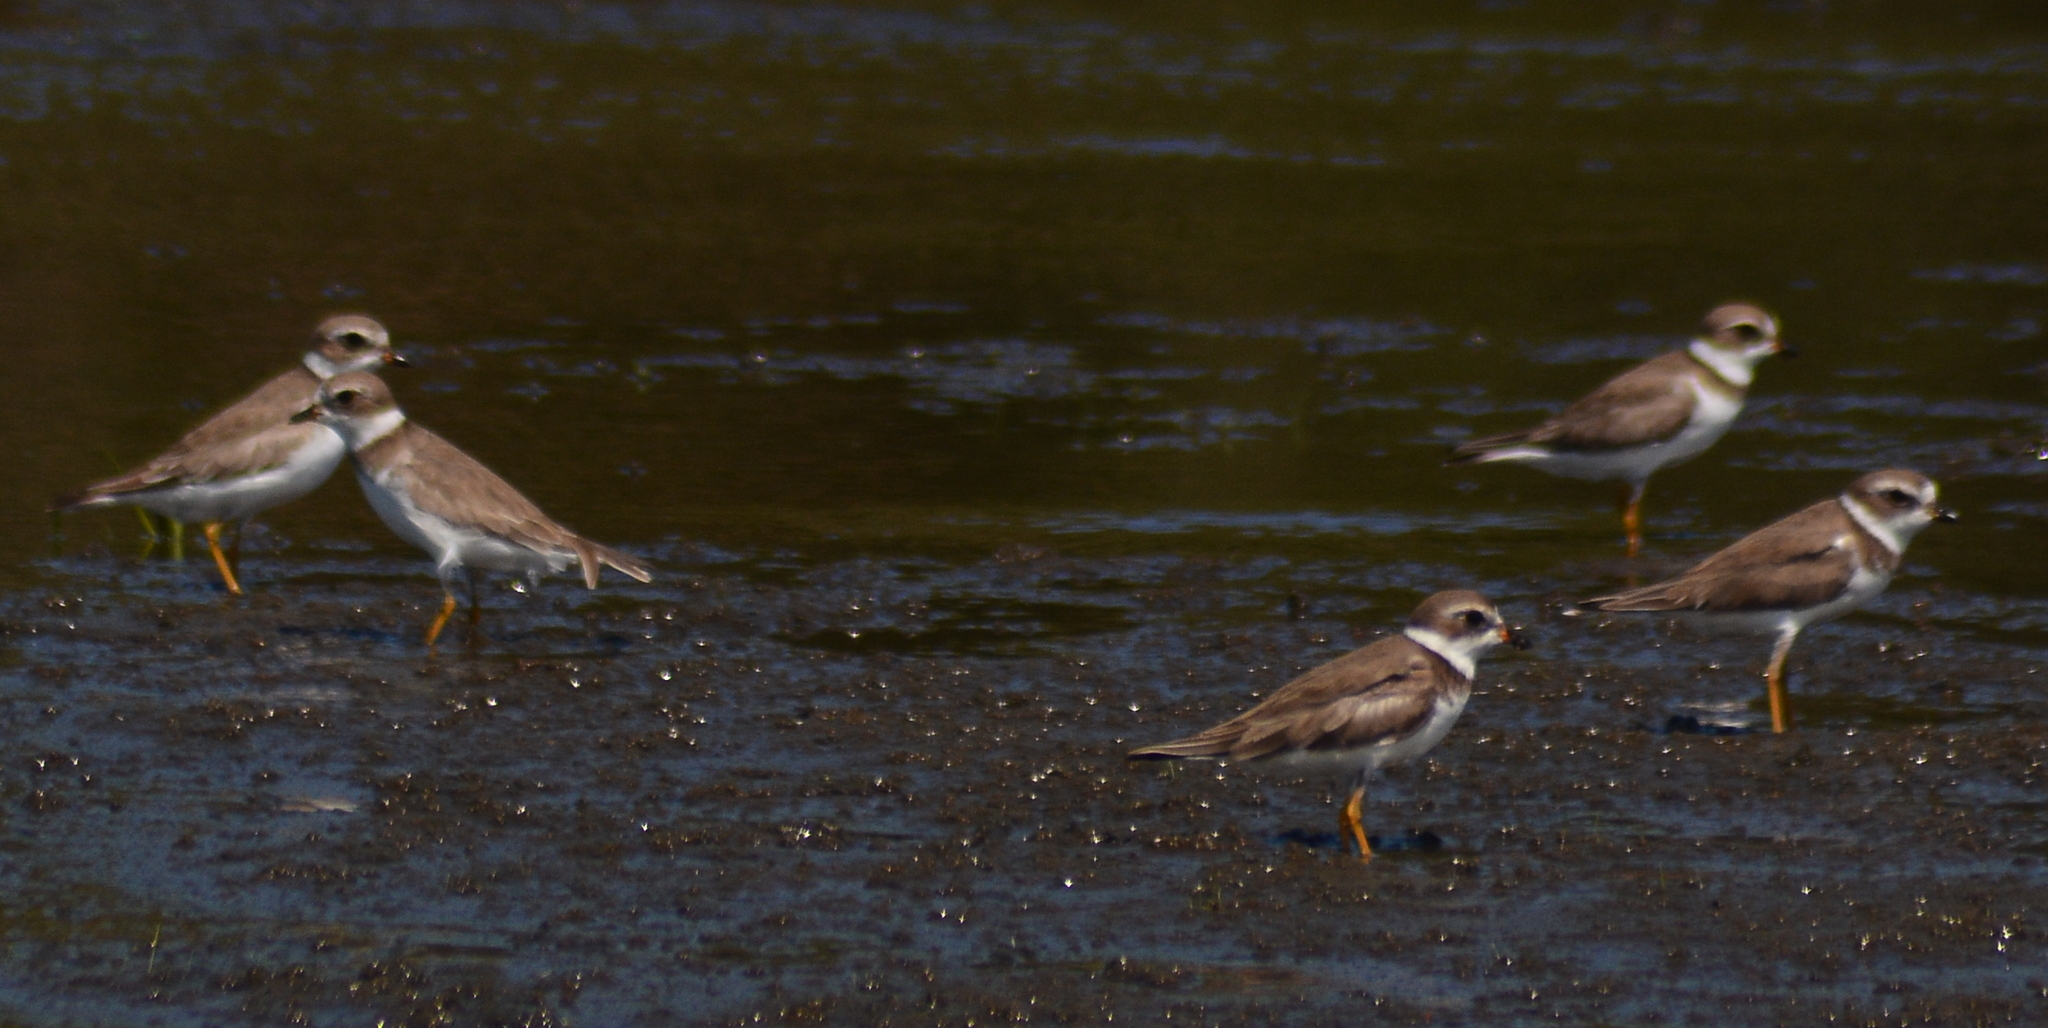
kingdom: Animalia
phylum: Chordata
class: Aves
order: Charadriiformes
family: Charadriidae
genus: Charadrius
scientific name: Charadrius semipalmatus
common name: Semipalmated plover
